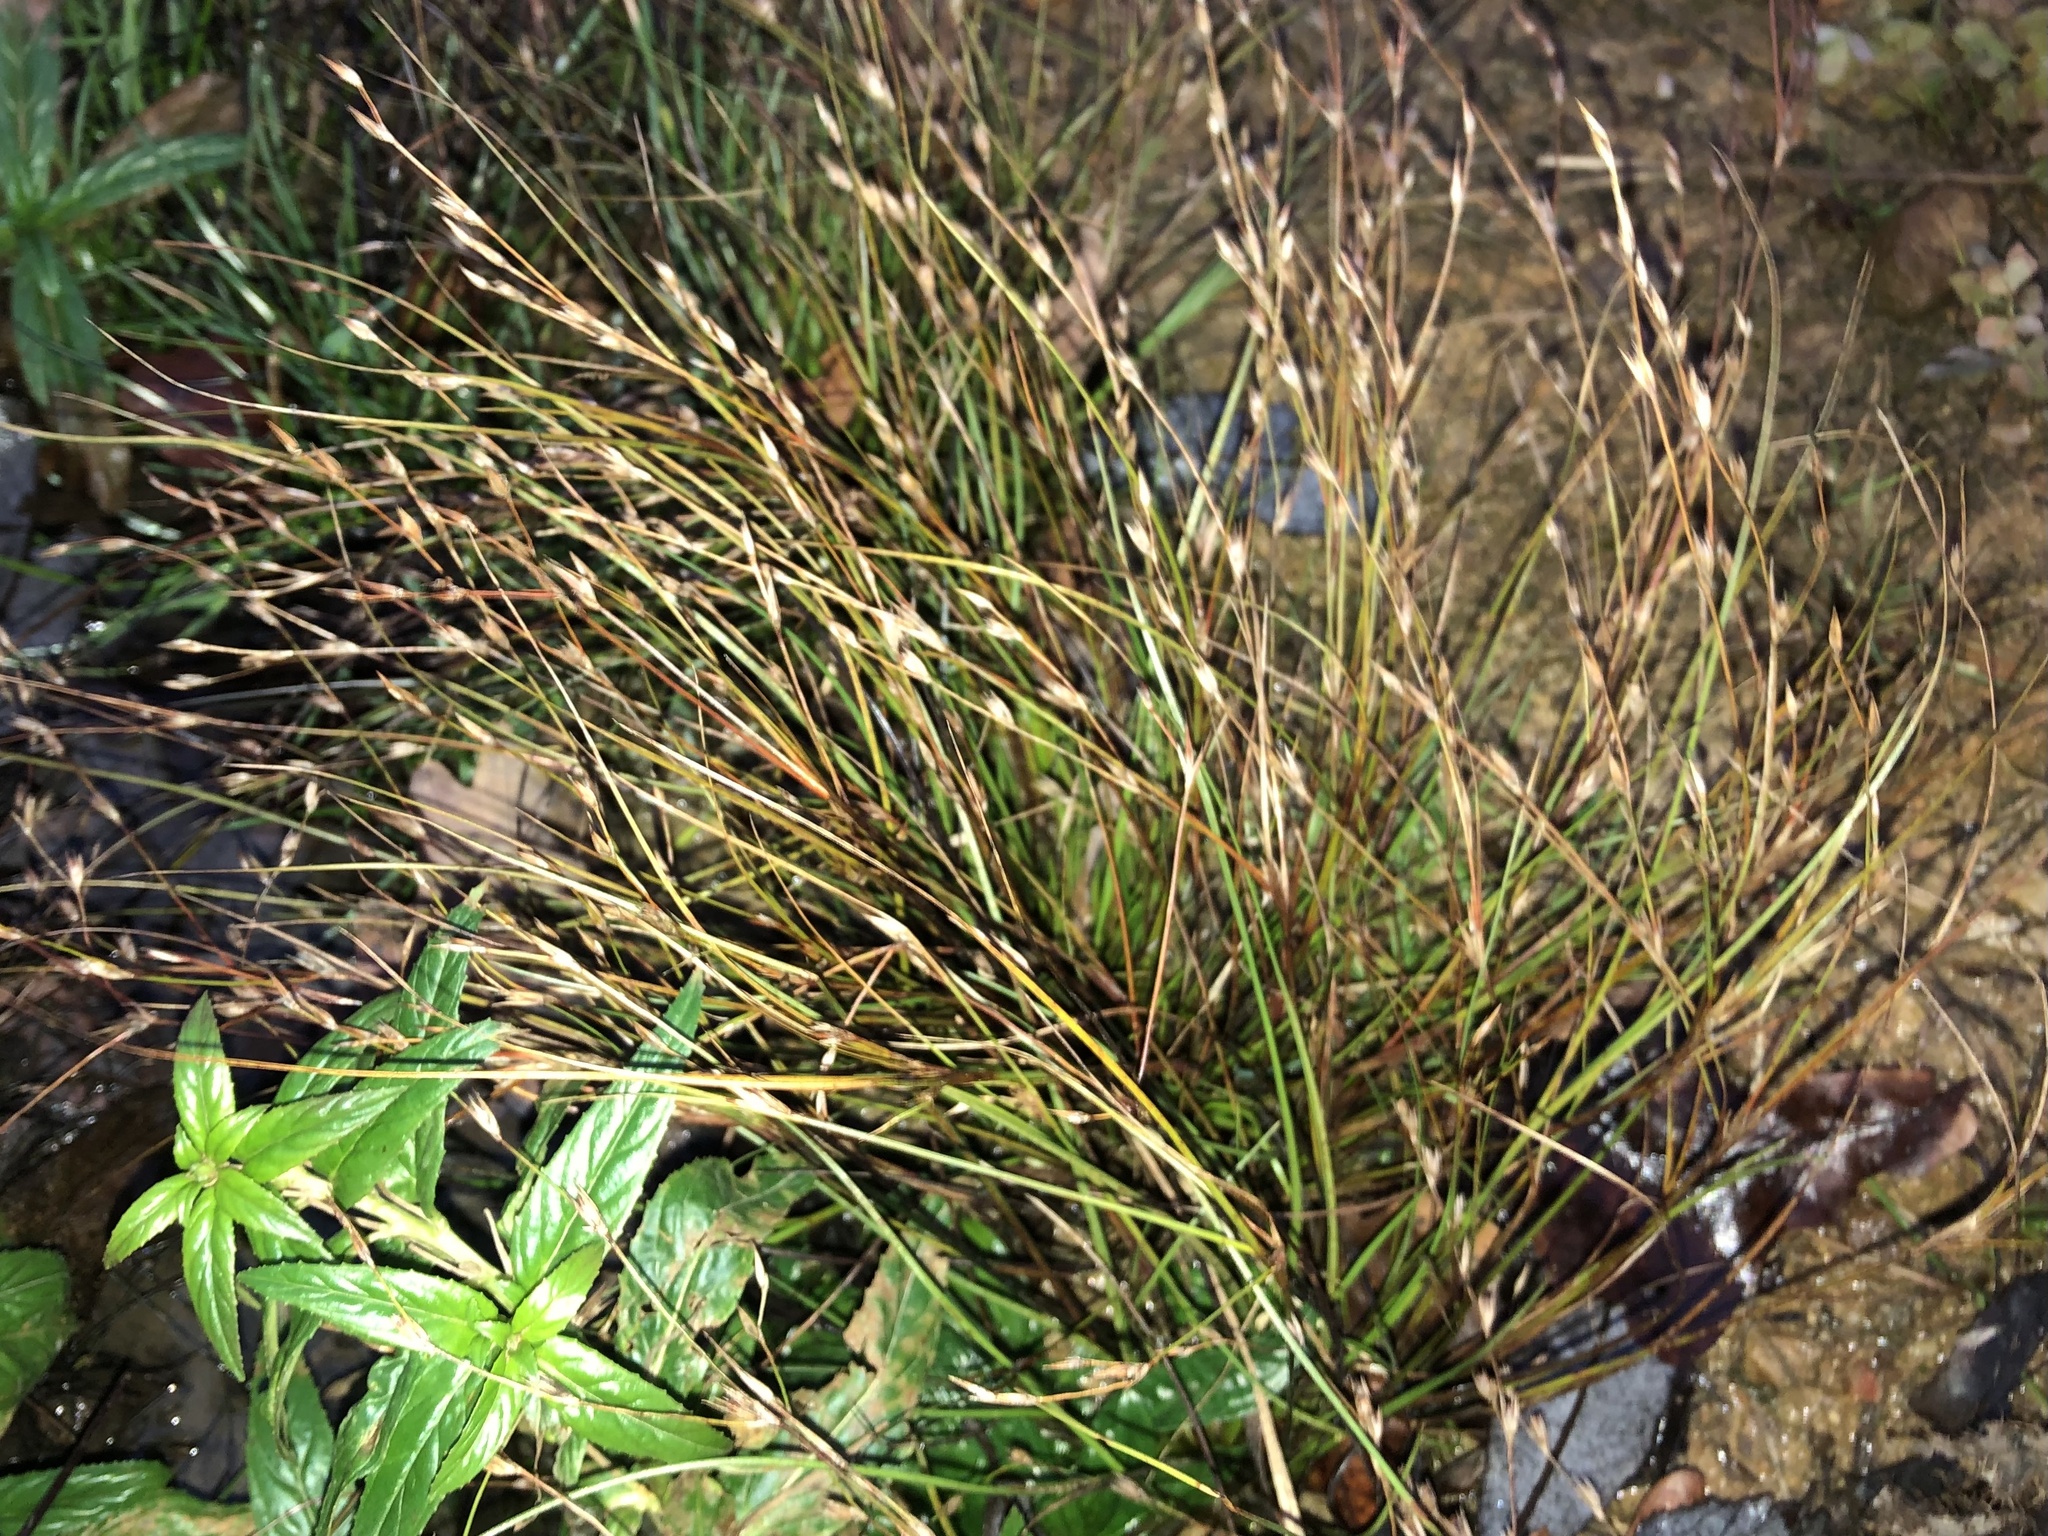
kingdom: Plantae
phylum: Tracheophyta
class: Liliopsida
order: Poales
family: Juncaceae
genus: Juncus
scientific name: Juncus bufonius
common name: Toad rush
